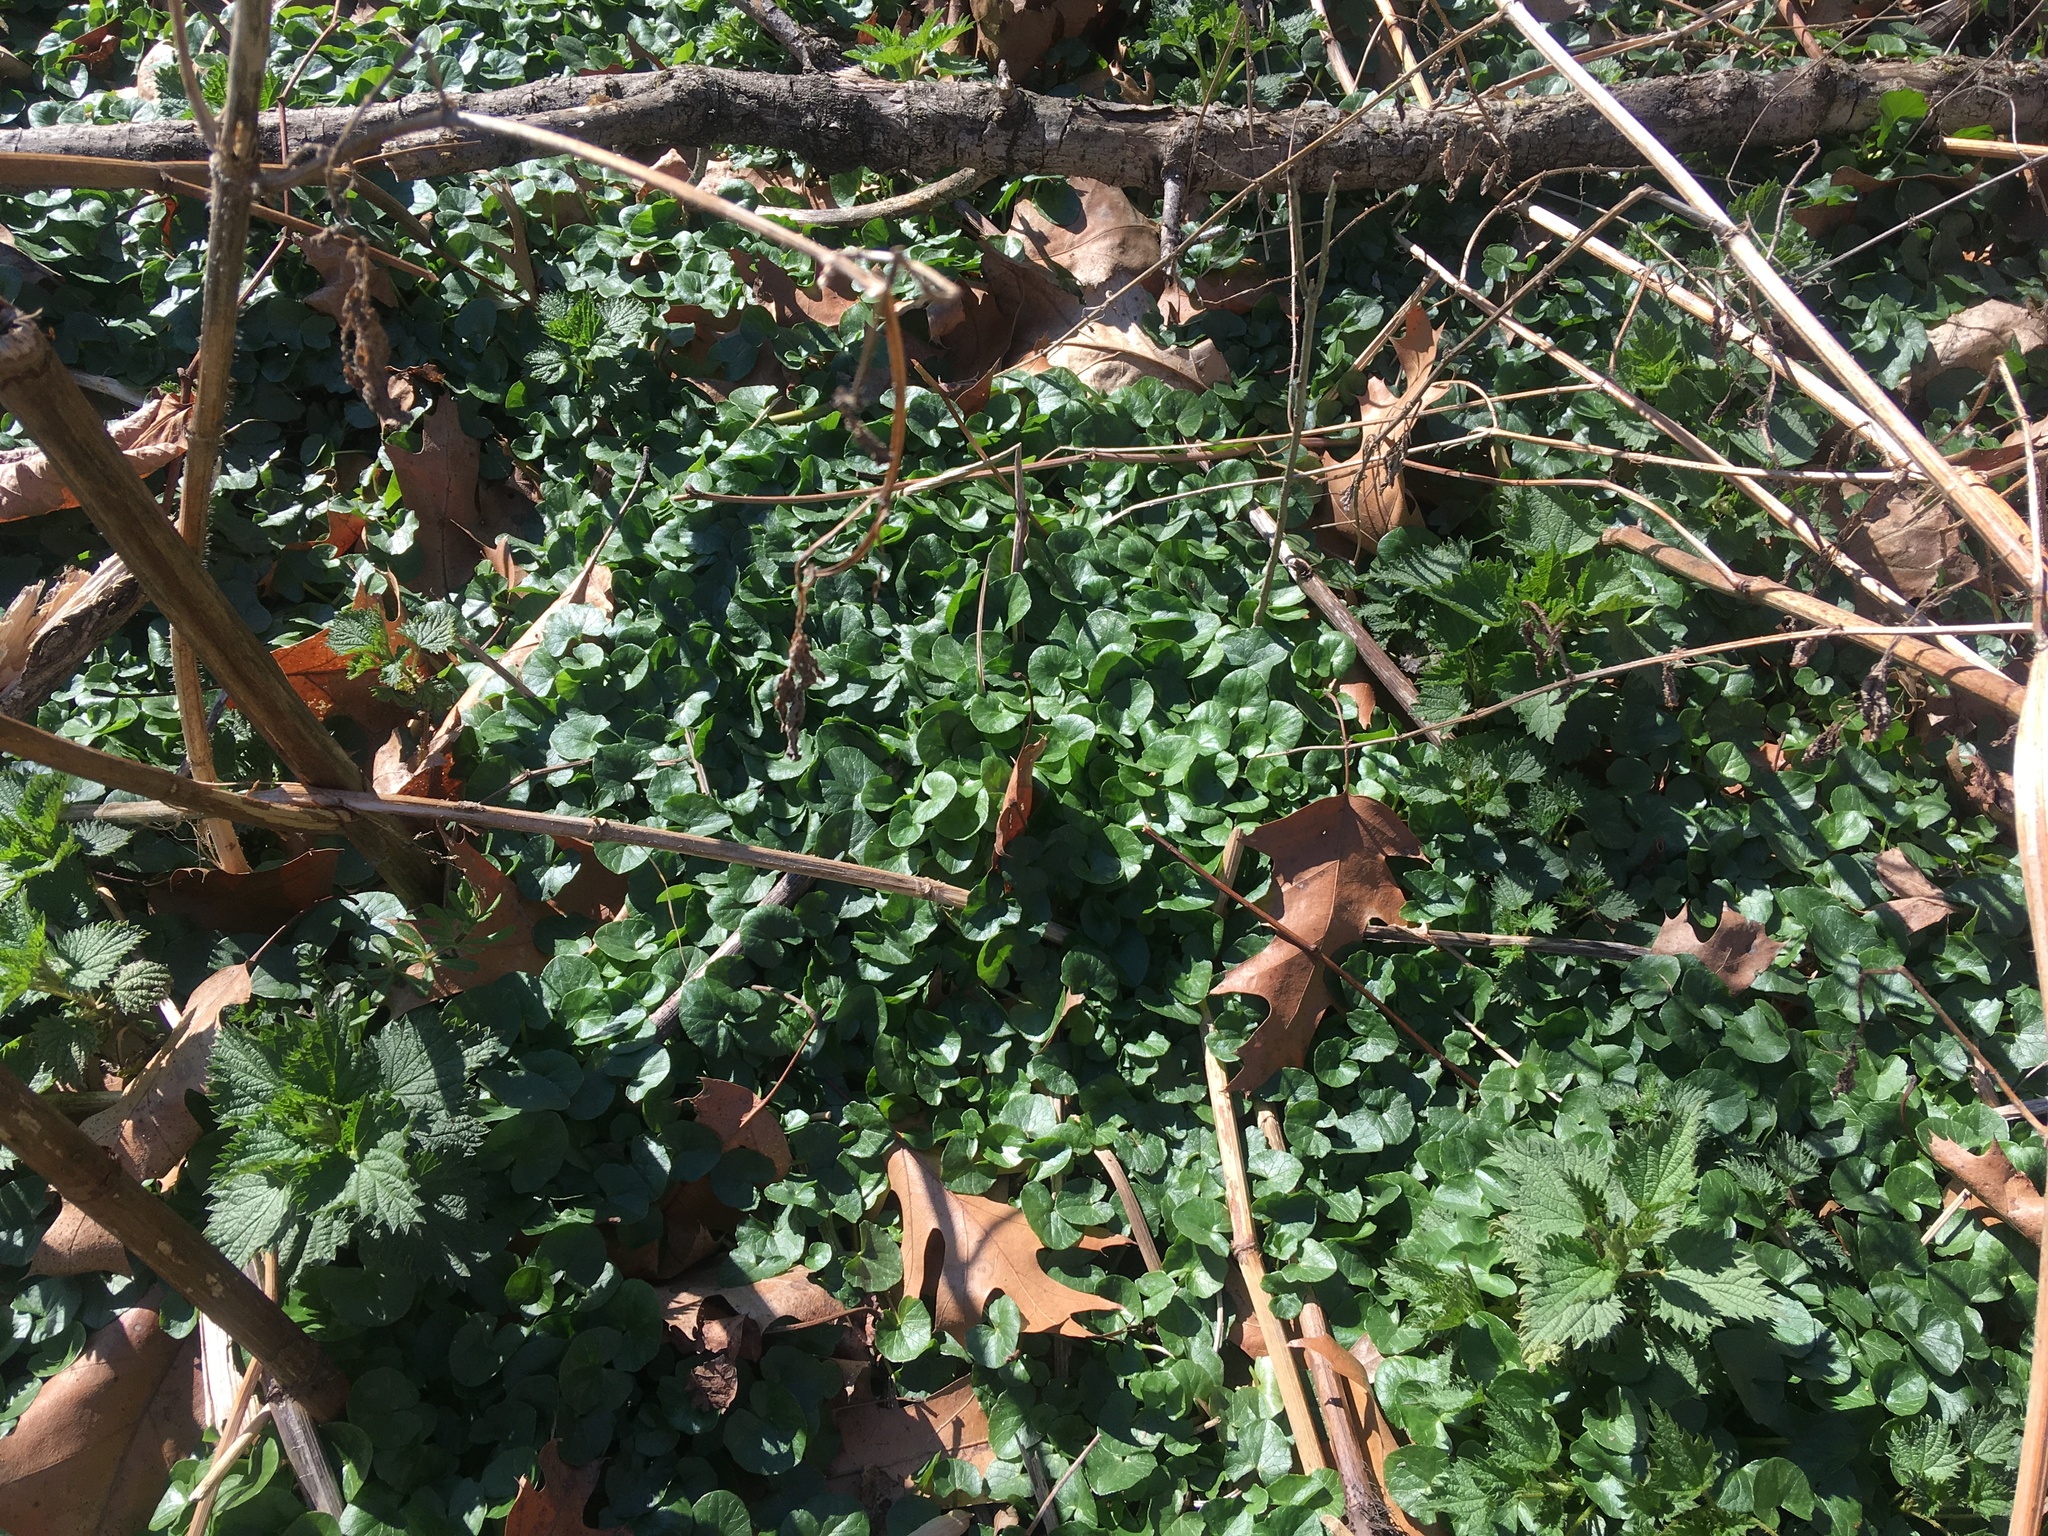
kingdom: Plantae
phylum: Tracheophyta
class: Magnoliopsida
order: Ranunculales
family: Ranunculaceae
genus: Ficaria
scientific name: Ficaria verna
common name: Lesser celandine
